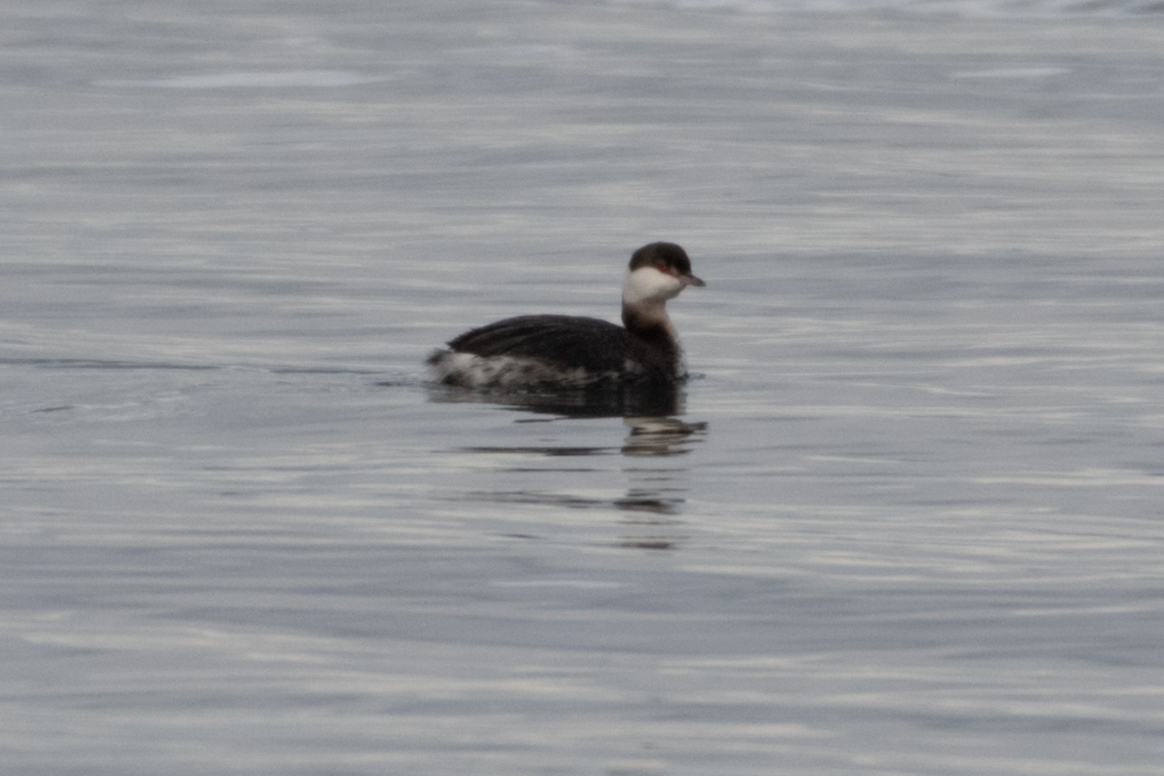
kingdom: Animalia
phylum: Chordata
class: Aves
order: Podicipediformes
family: Podicipedidae
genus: Podiceps
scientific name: Podiceps auritus
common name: Horned grebe
